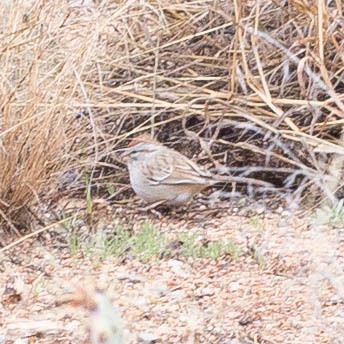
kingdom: Animalia
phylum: Chordata
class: Aves
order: Passeriformes
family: Passerellidae
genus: Peucaea
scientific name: Peucaea carpalis
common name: Rufous-winged sparrow
